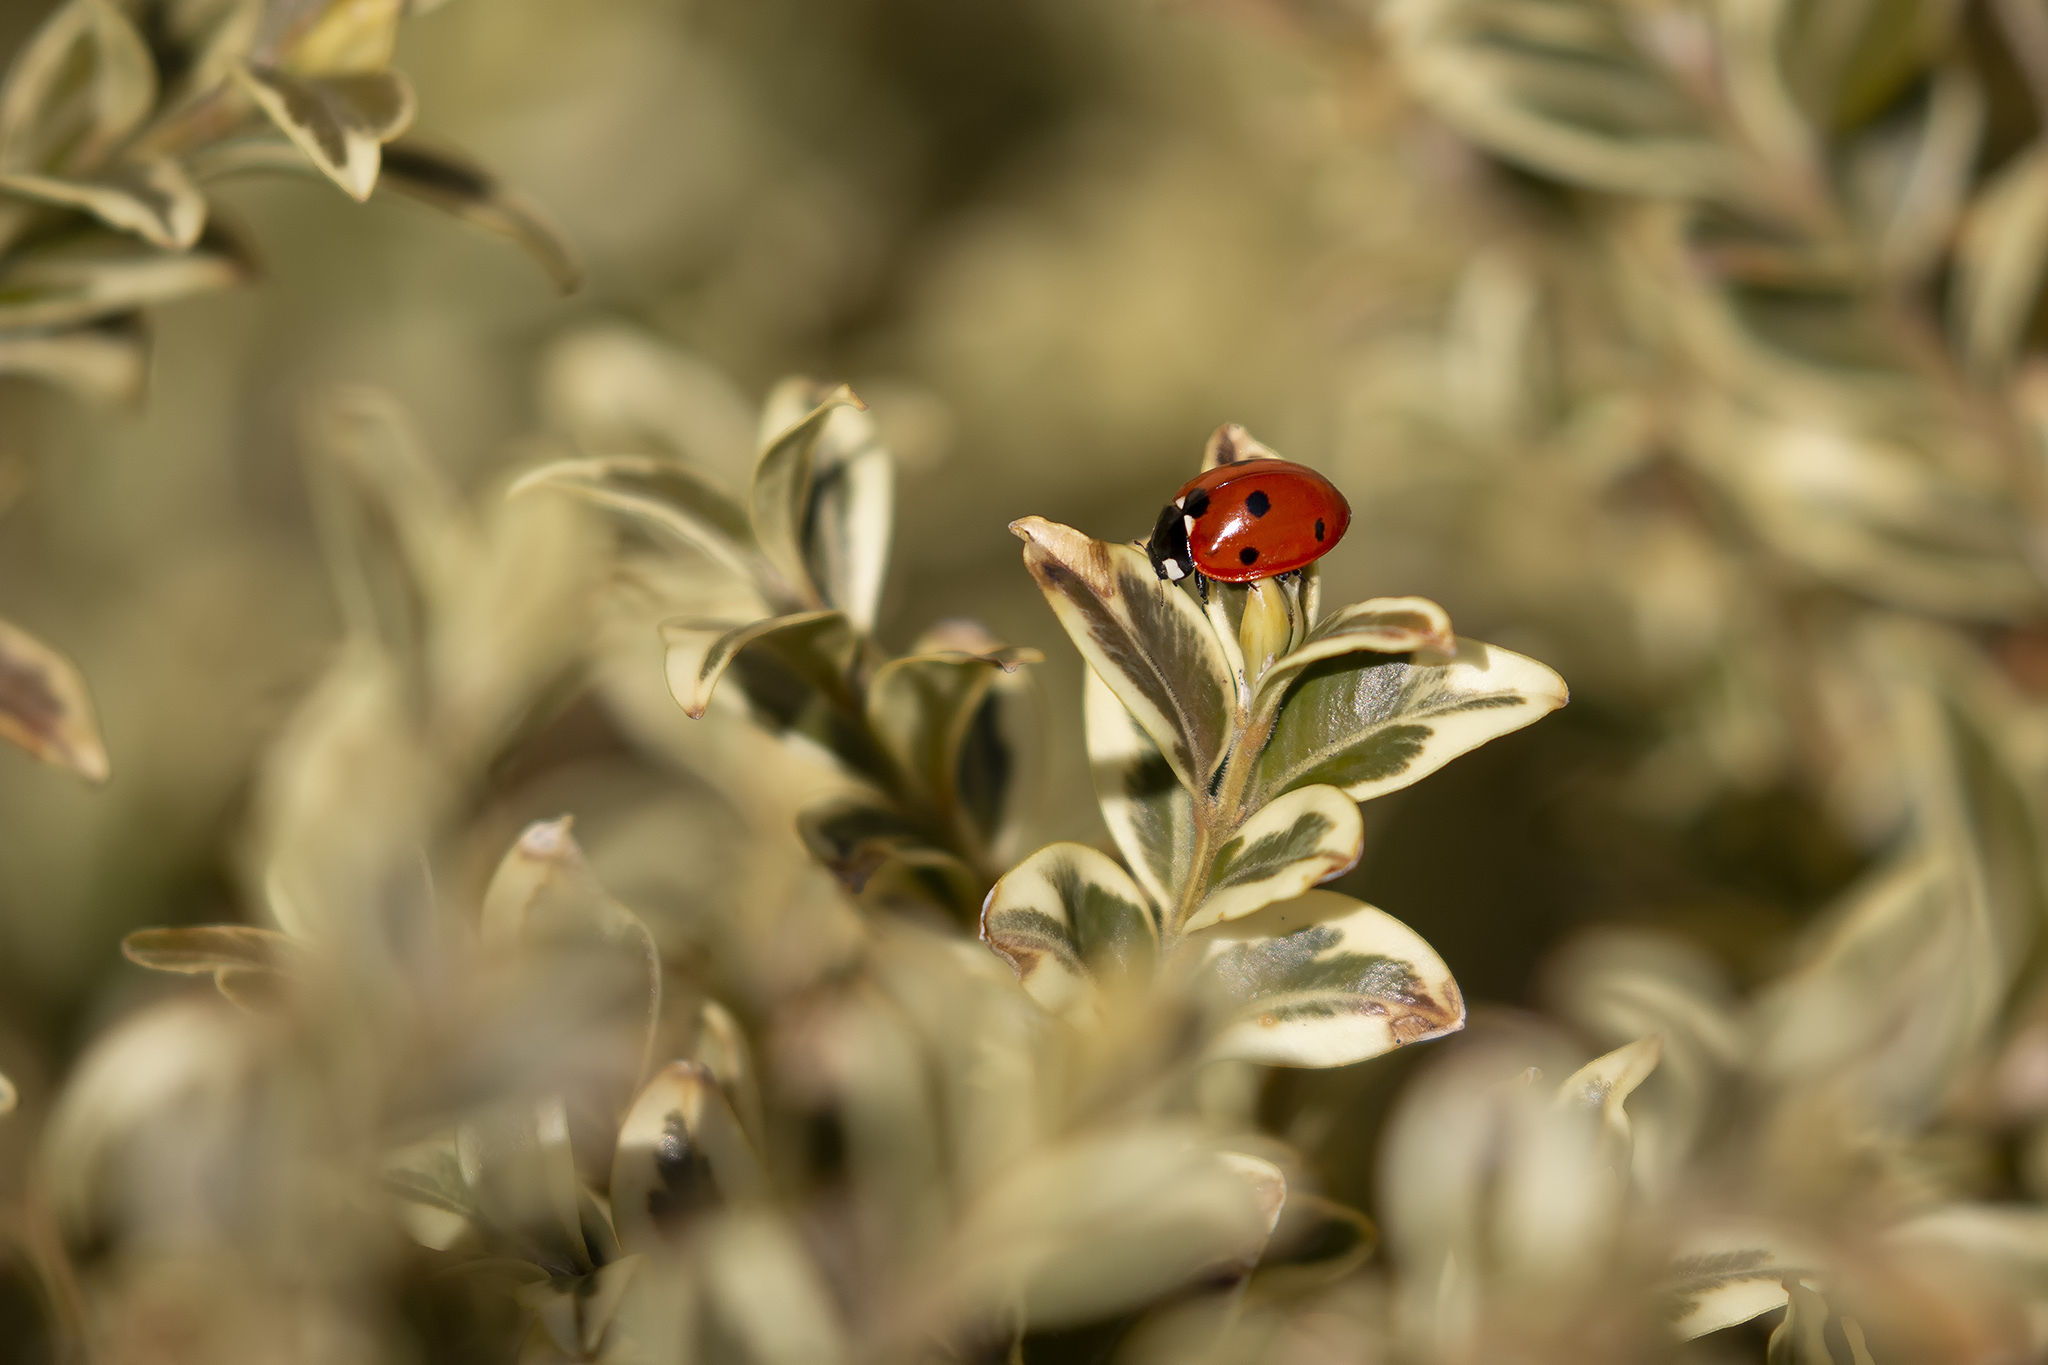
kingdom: Animalia
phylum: Arthropoda
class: Insecta
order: Coleoptera
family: Coccinellidae
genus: Coccinella
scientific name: Coccinella septempunctata
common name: Sevenspotted lady beetle
